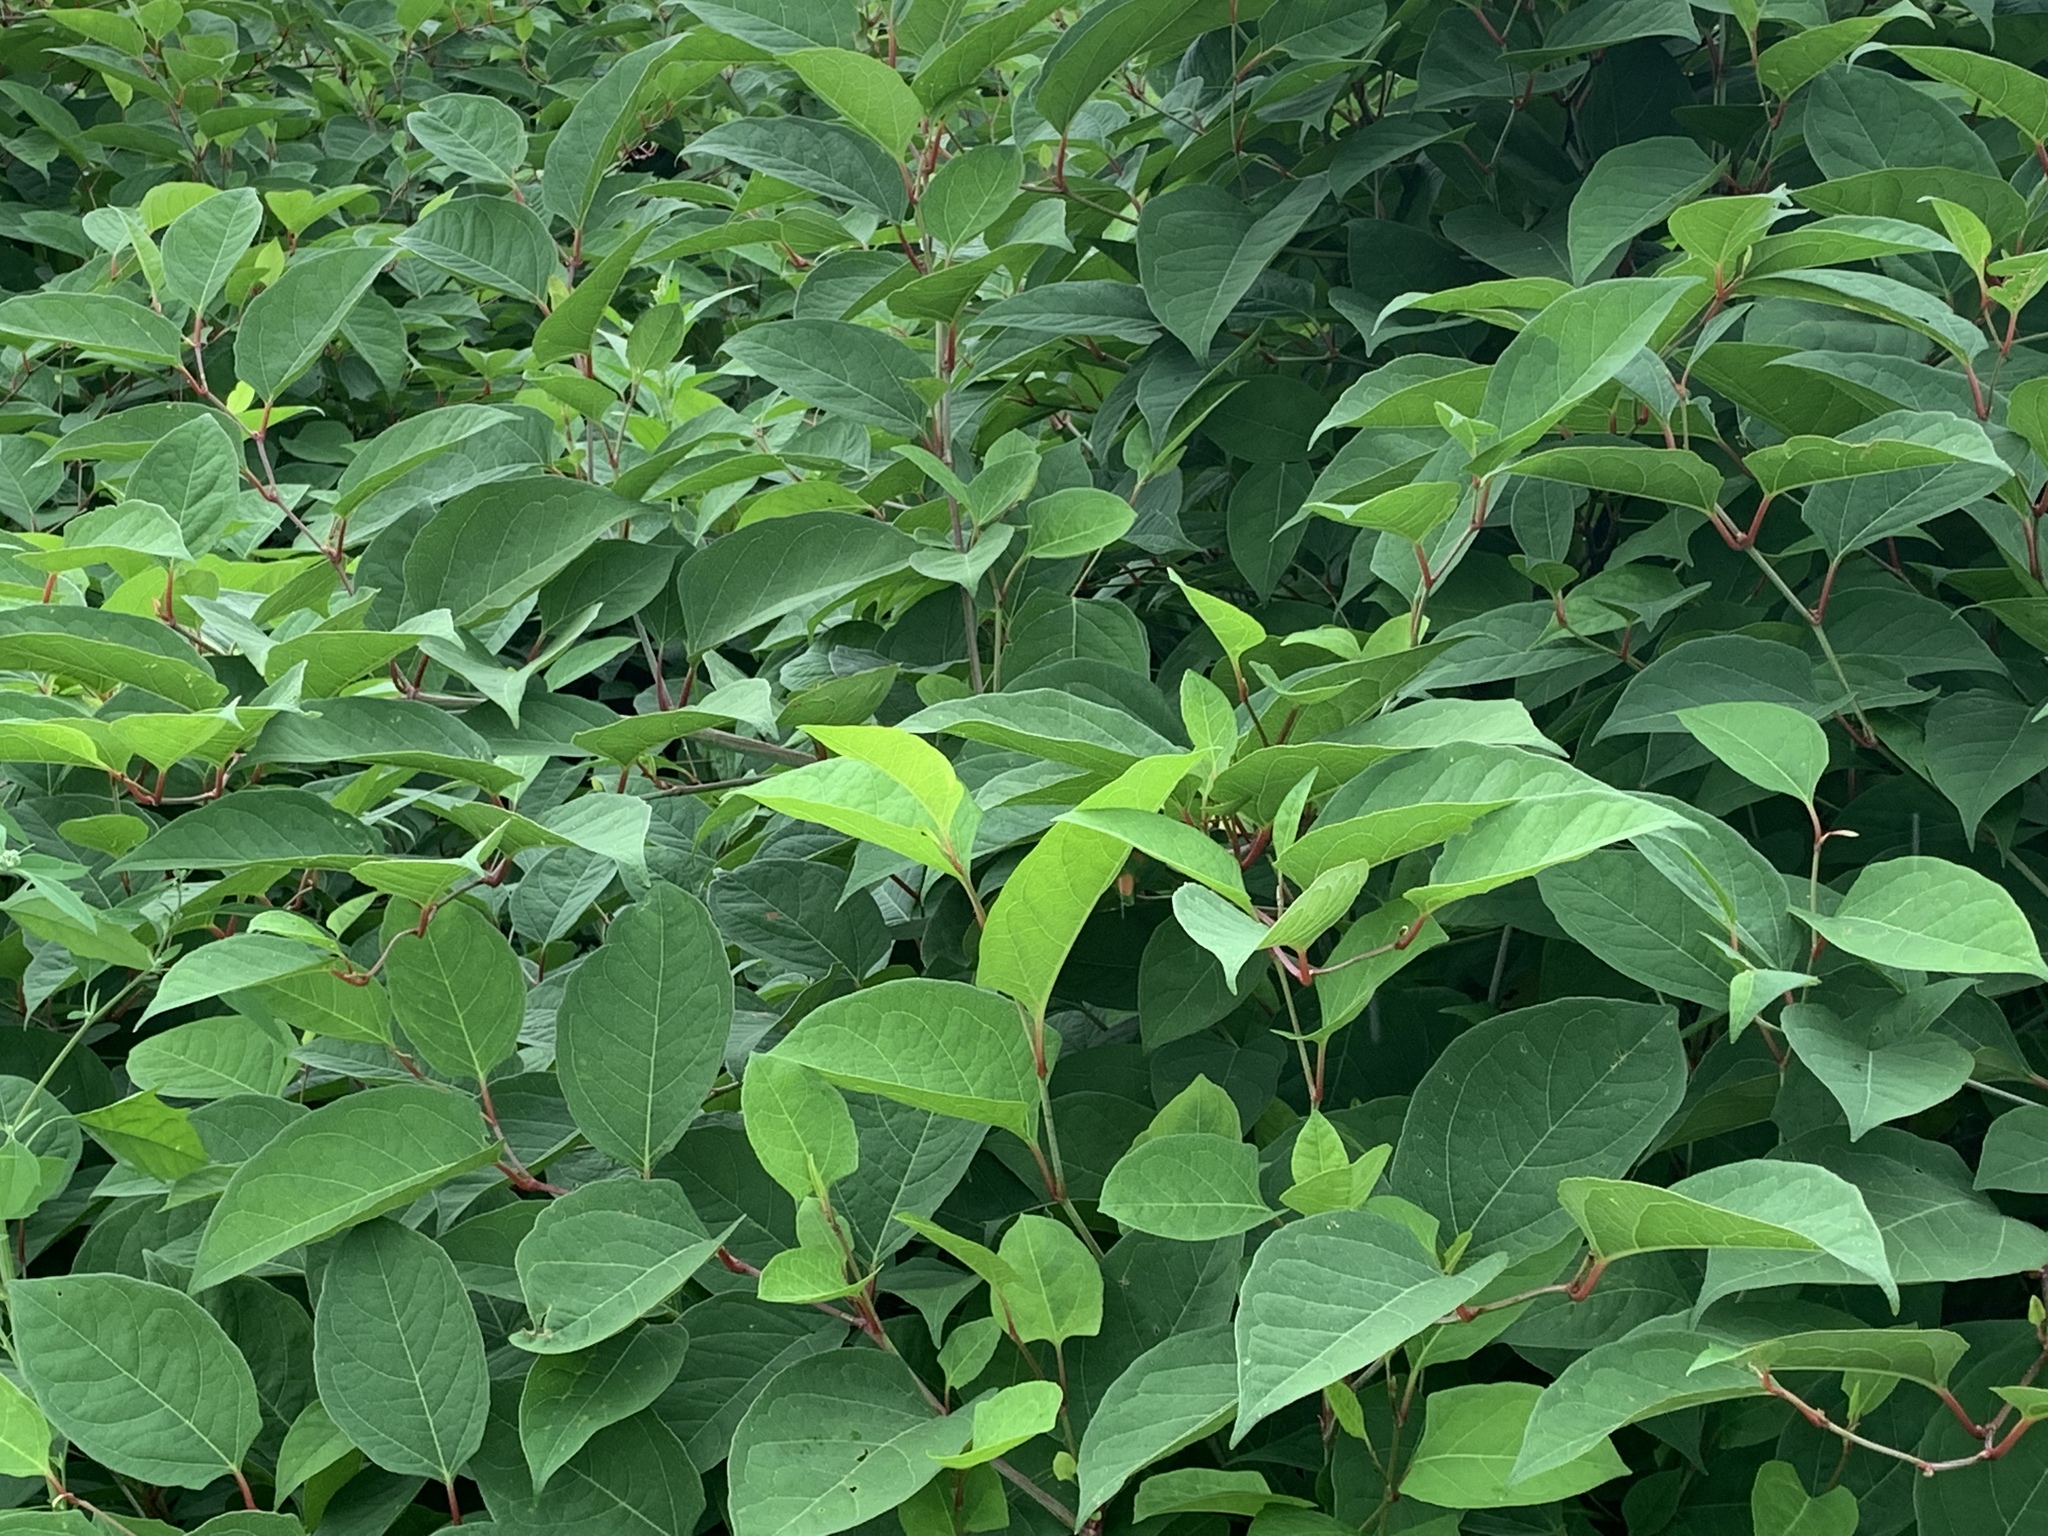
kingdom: Plantae
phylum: Tracheophyta
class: Magnoliopsida
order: Caryophyllales
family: Polygonaceae
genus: Reynoutria
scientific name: Reynoutria japonica
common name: Japanese knotweed
